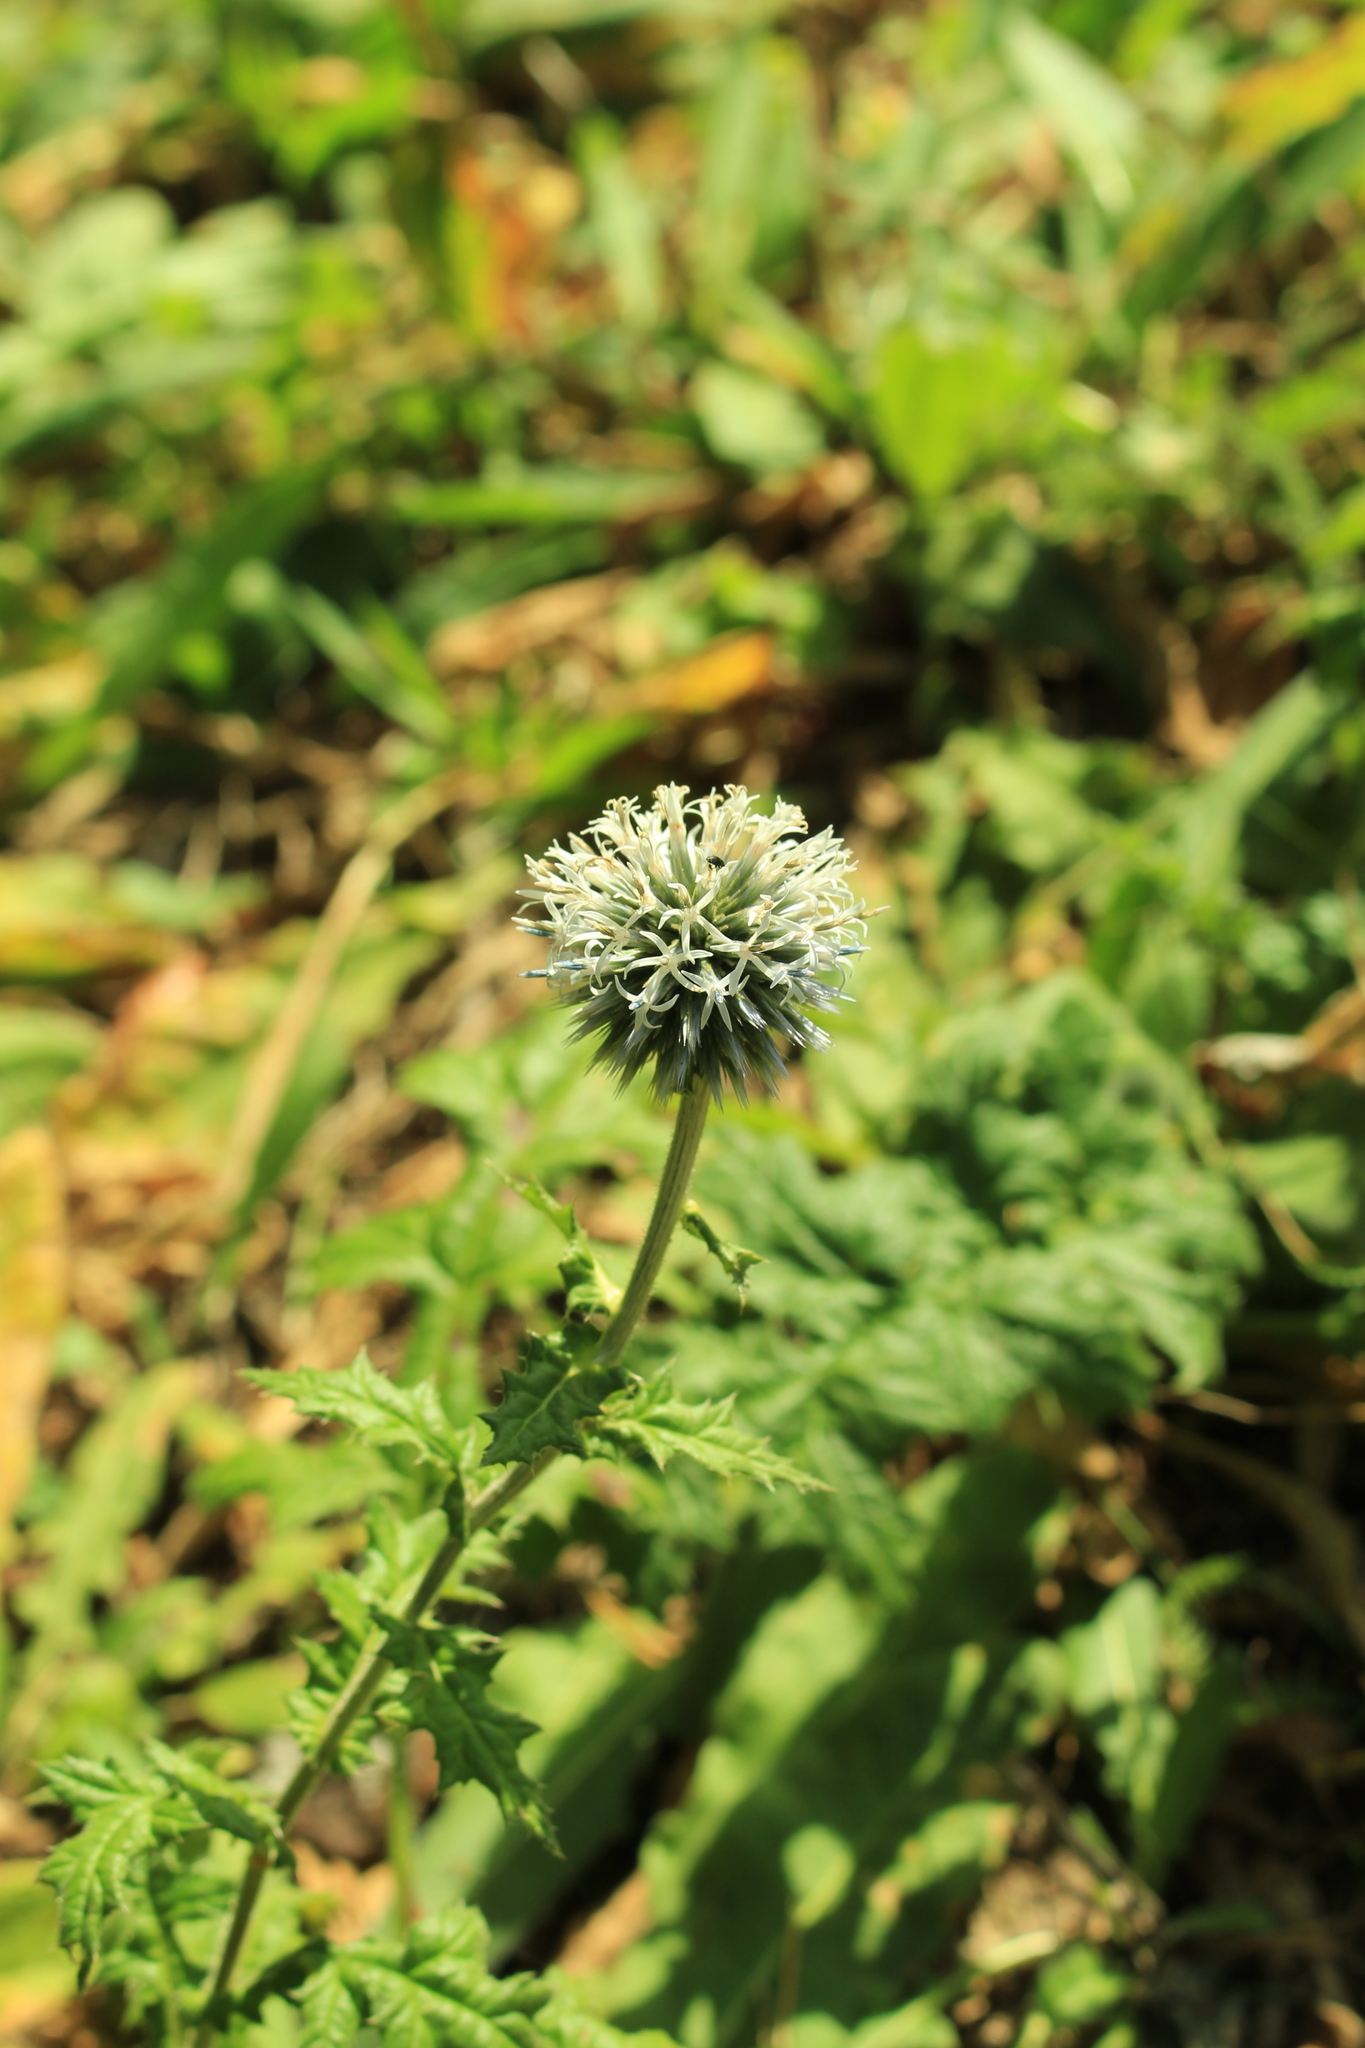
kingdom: Plantae
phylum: Tracheophyta
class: Magnoliopsida
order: Asterales
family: Asteraceae
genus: Echinops
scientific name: Echinops sphaerocephalus
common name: Glandular globe-thistle
